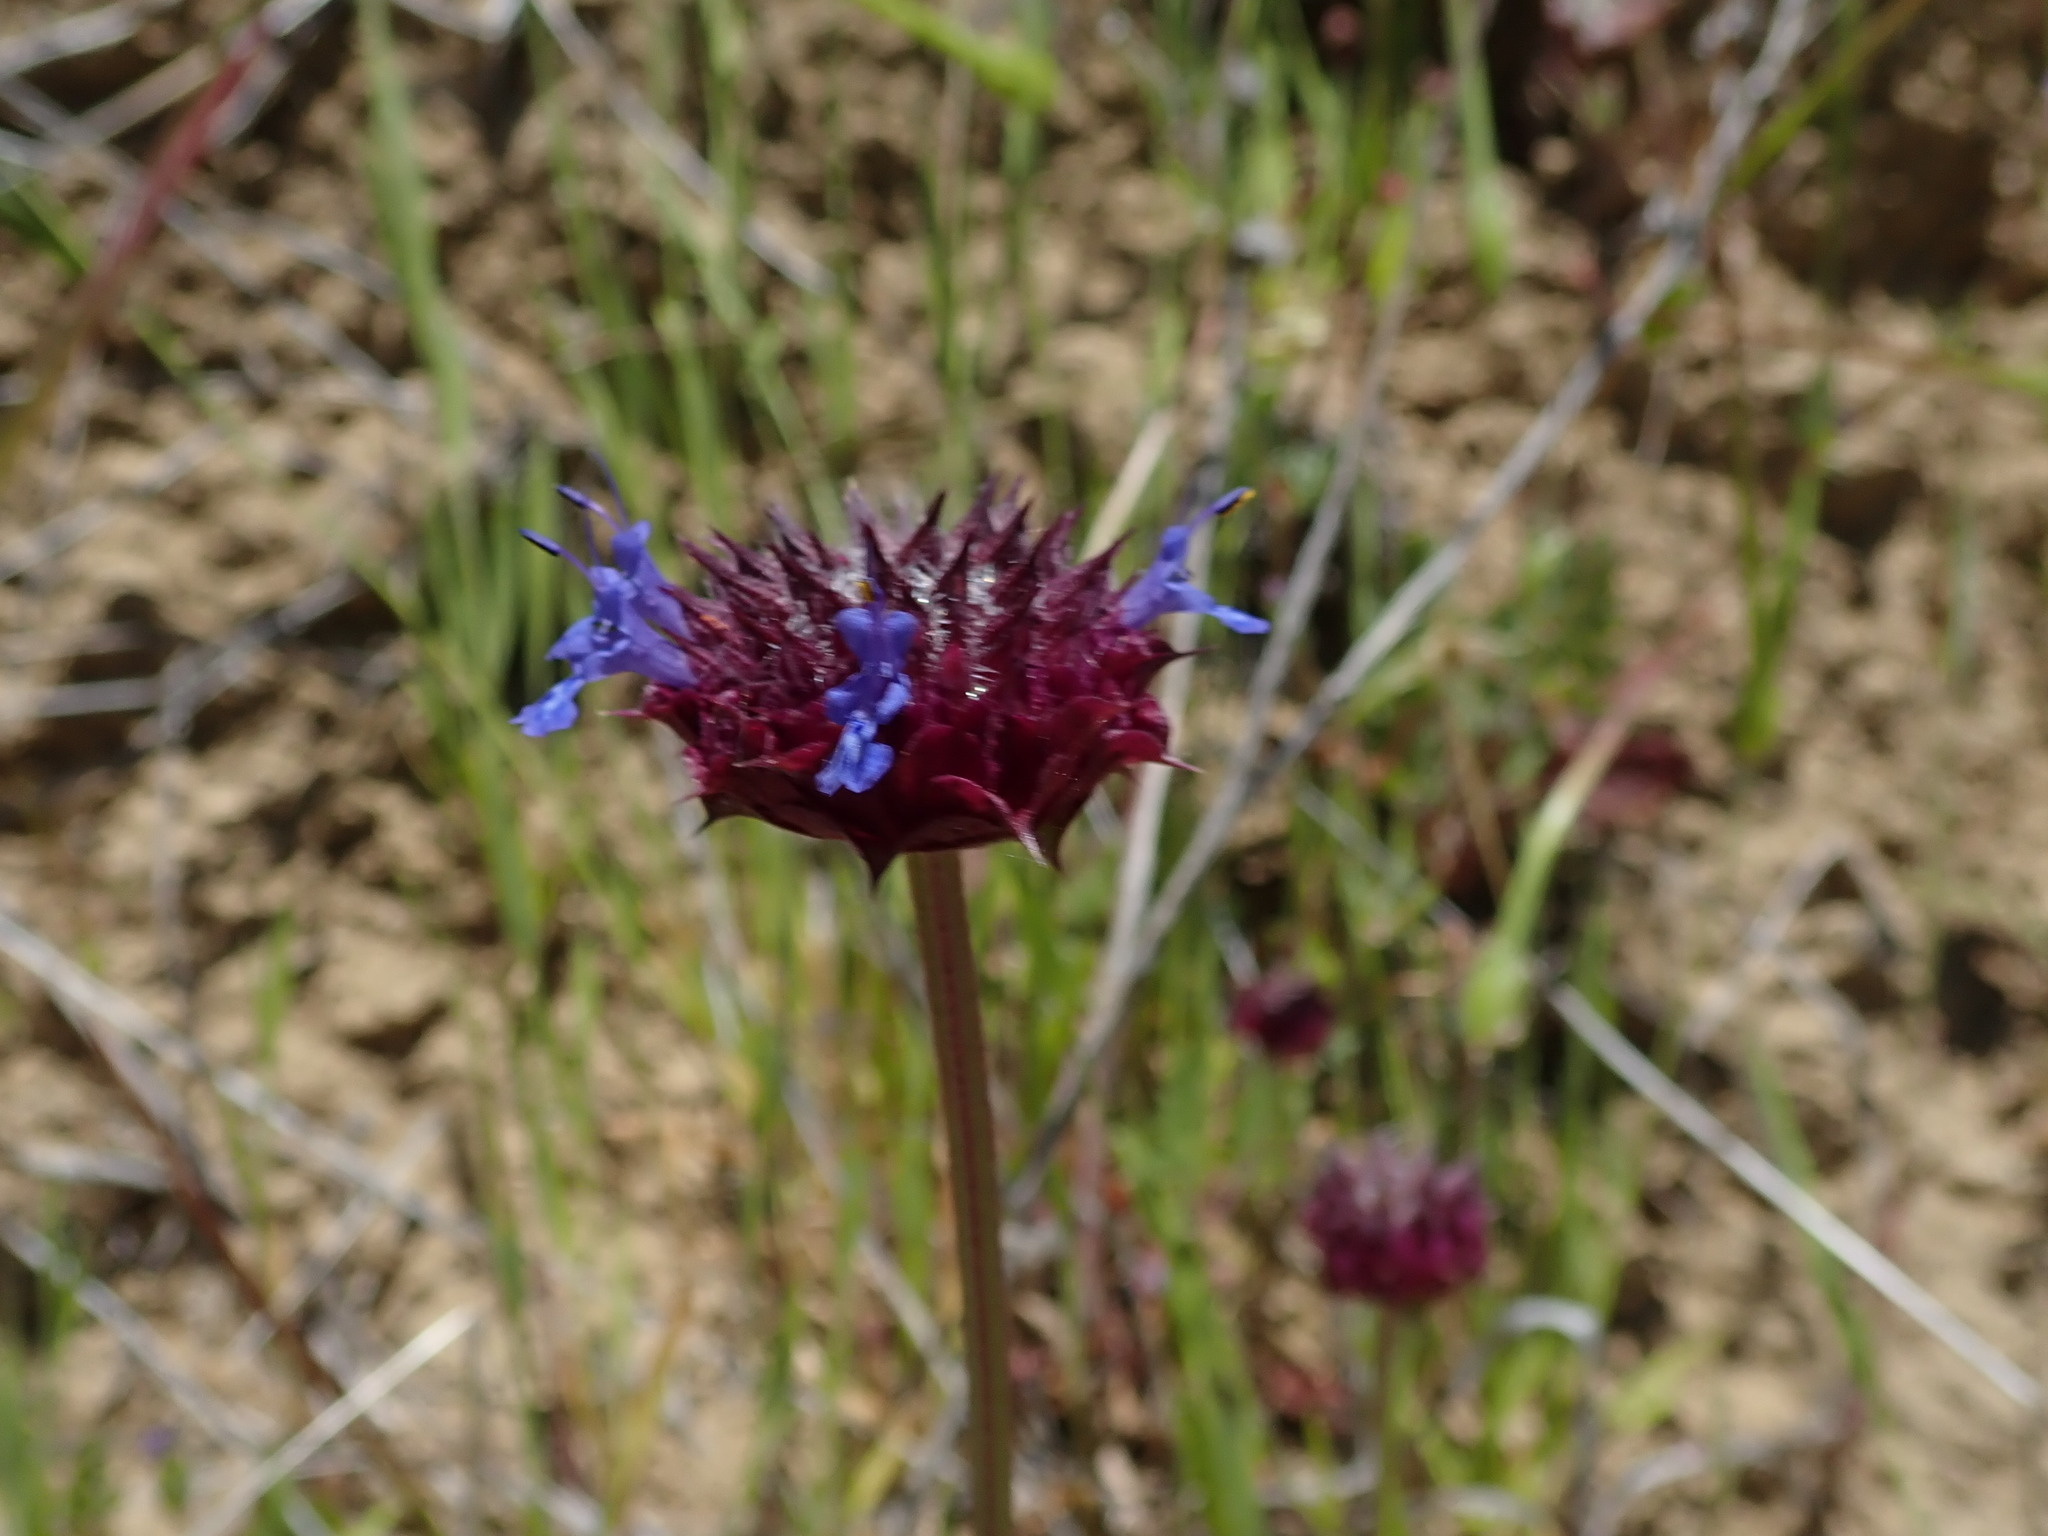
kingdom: Plantae
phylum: Tracheophyta
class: Magnoliopsida
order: Lamiales
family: Lamiaceae
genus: Salvia
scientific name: Salvia columbariae
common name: Chia
